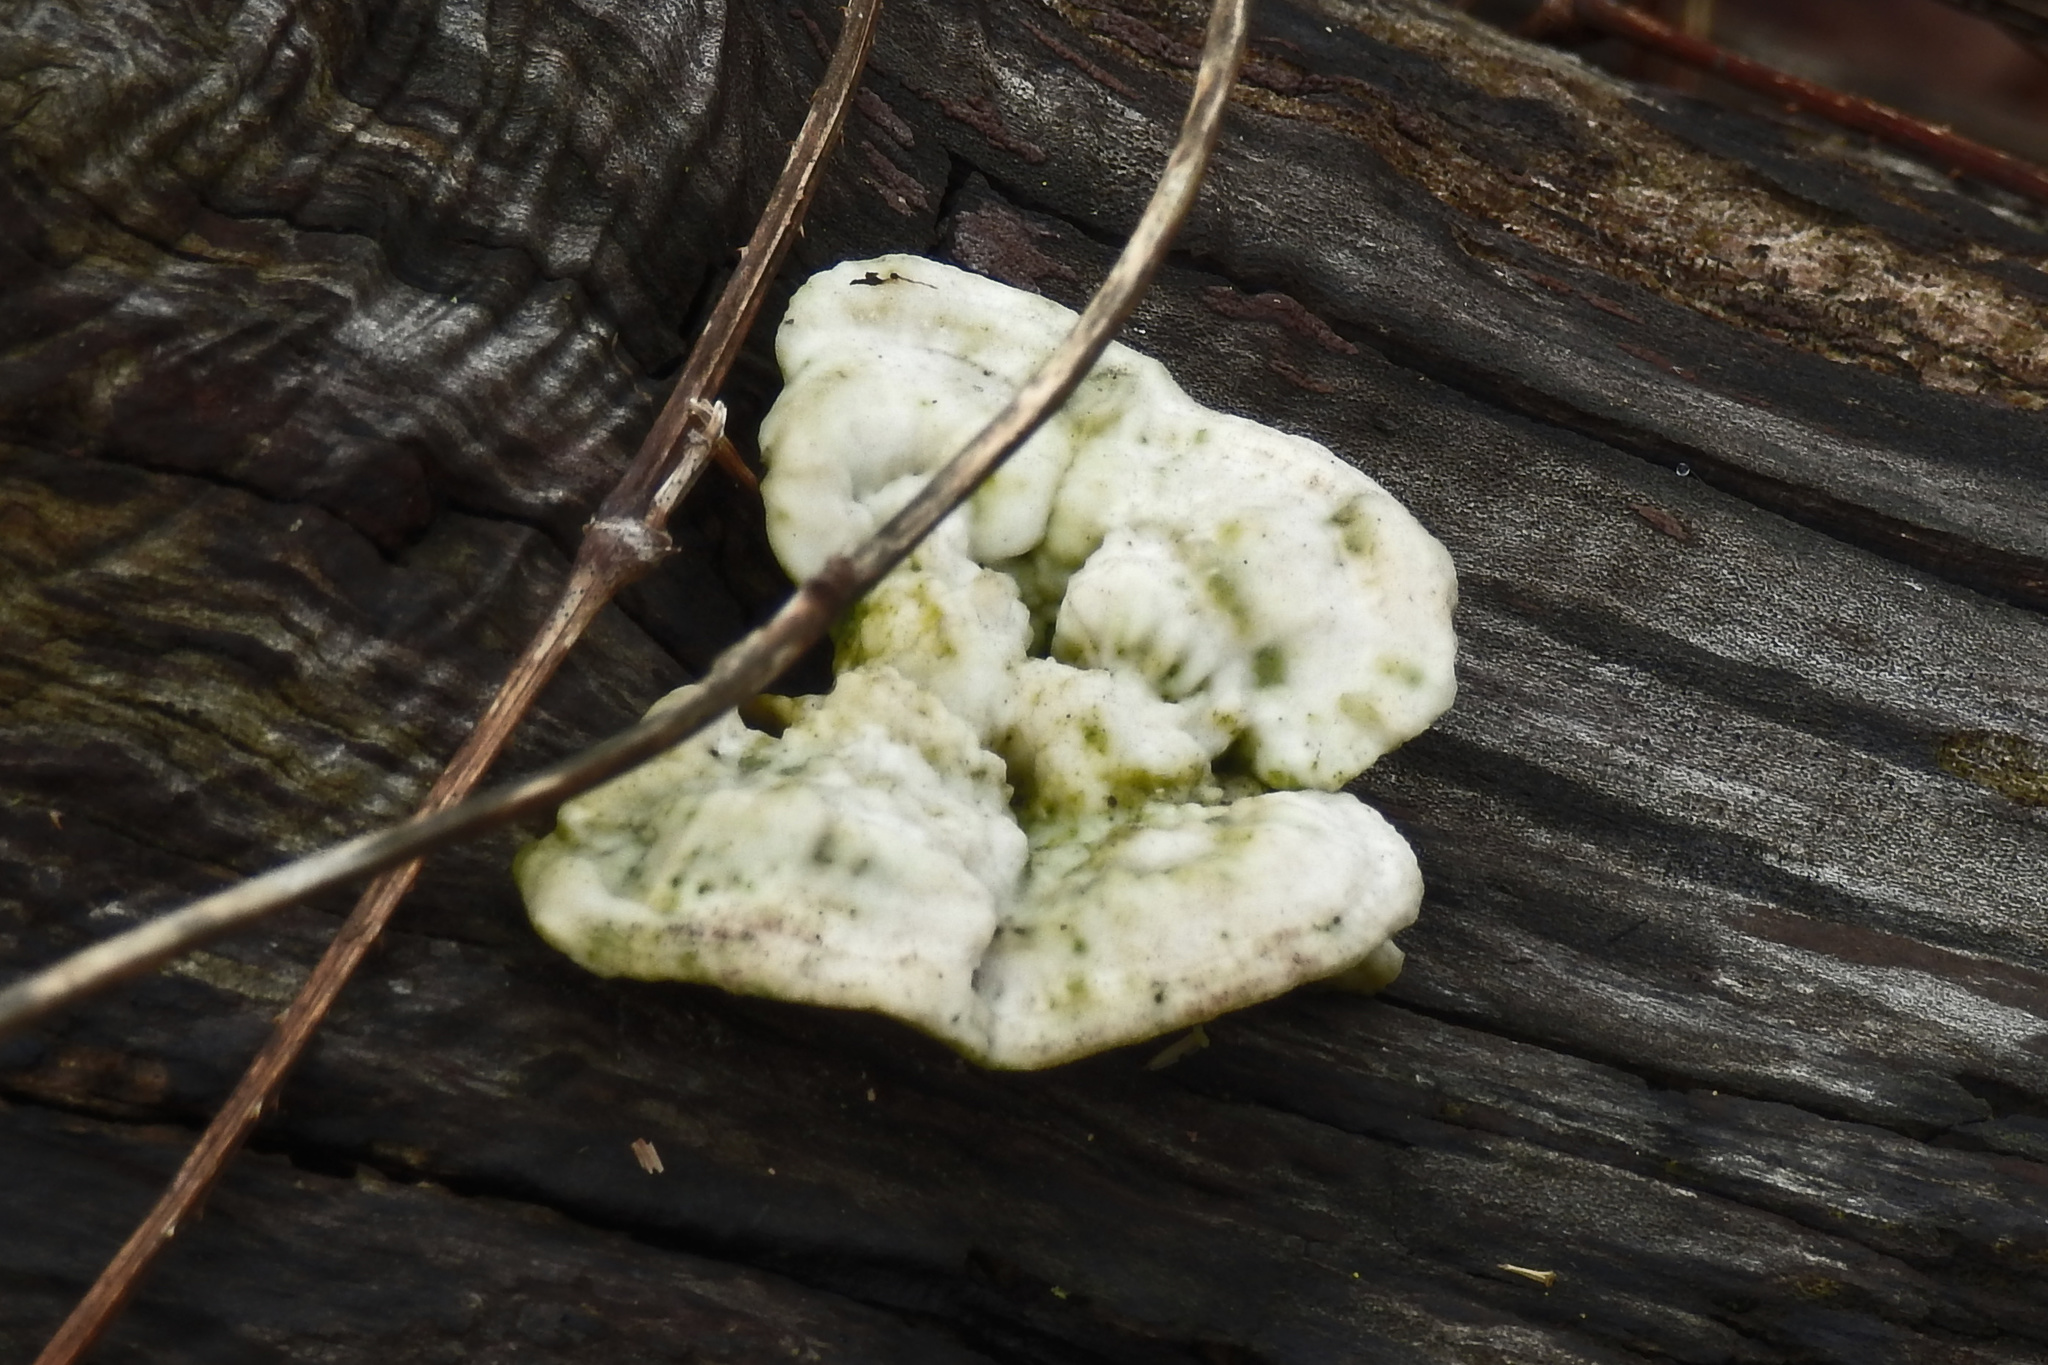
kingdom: Fungi
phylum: Basidiomycota
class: Agaricomycetes
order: Polyporales
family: Polyporaceae
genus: Trametes
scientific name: Trametes gibbosa
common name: Lumpy bracket
